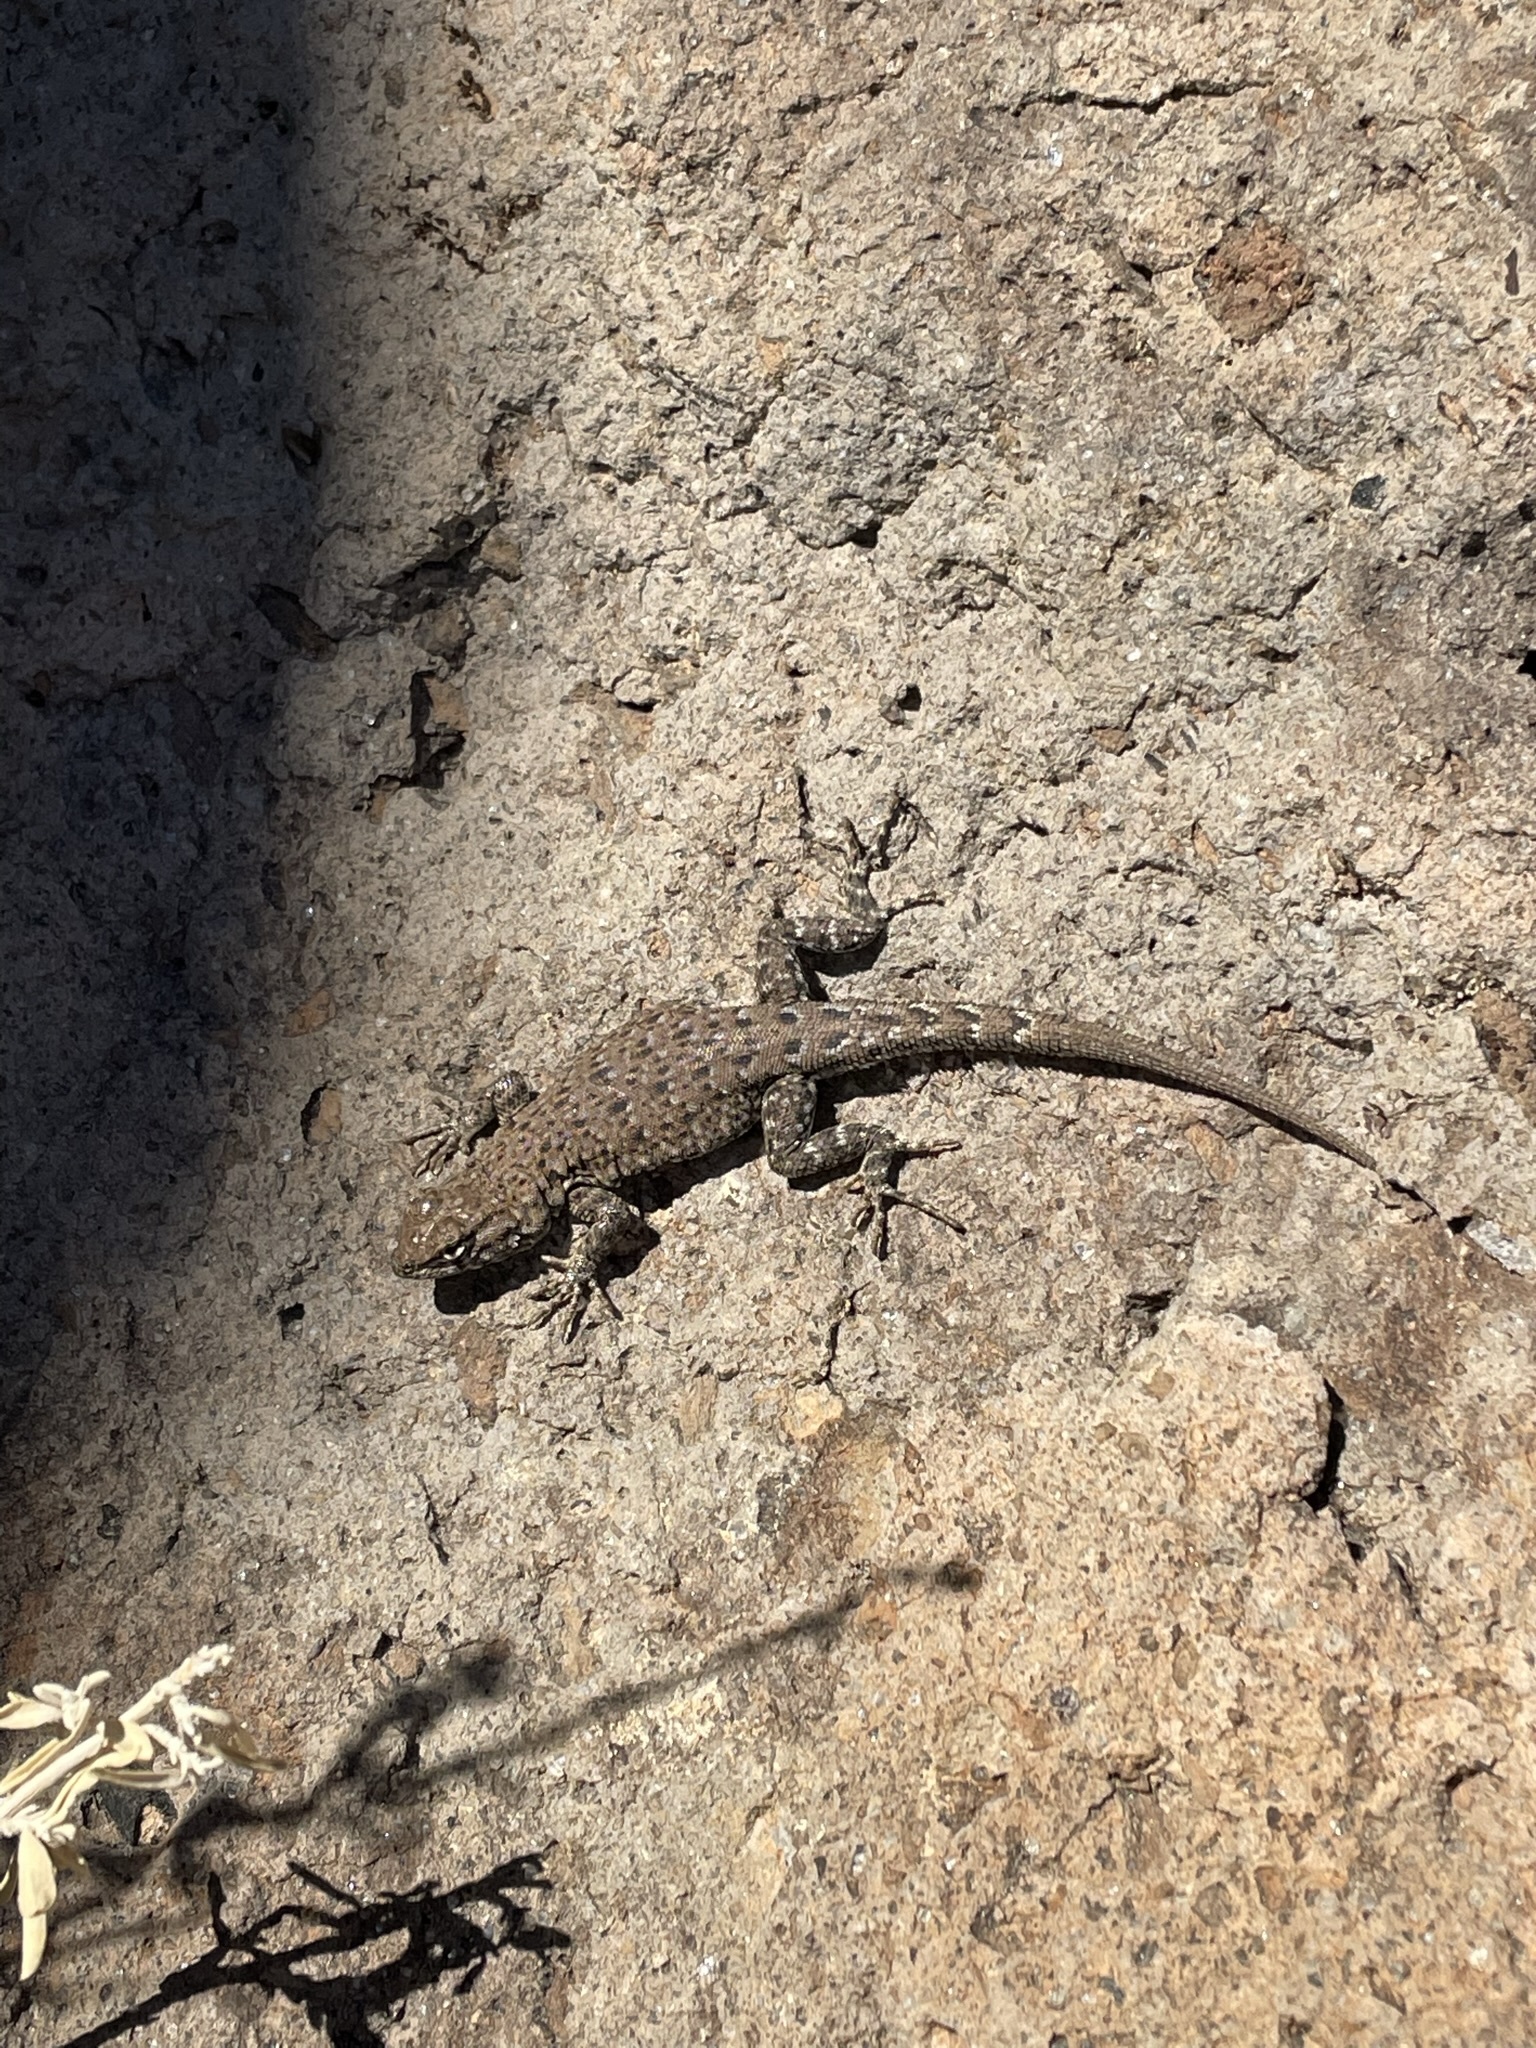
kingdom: Animalia
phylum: Chordata
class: Squamata
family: Phrynosomatidae
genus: Uta
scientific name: Uta stansburiana
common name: Side-blotched lizard
